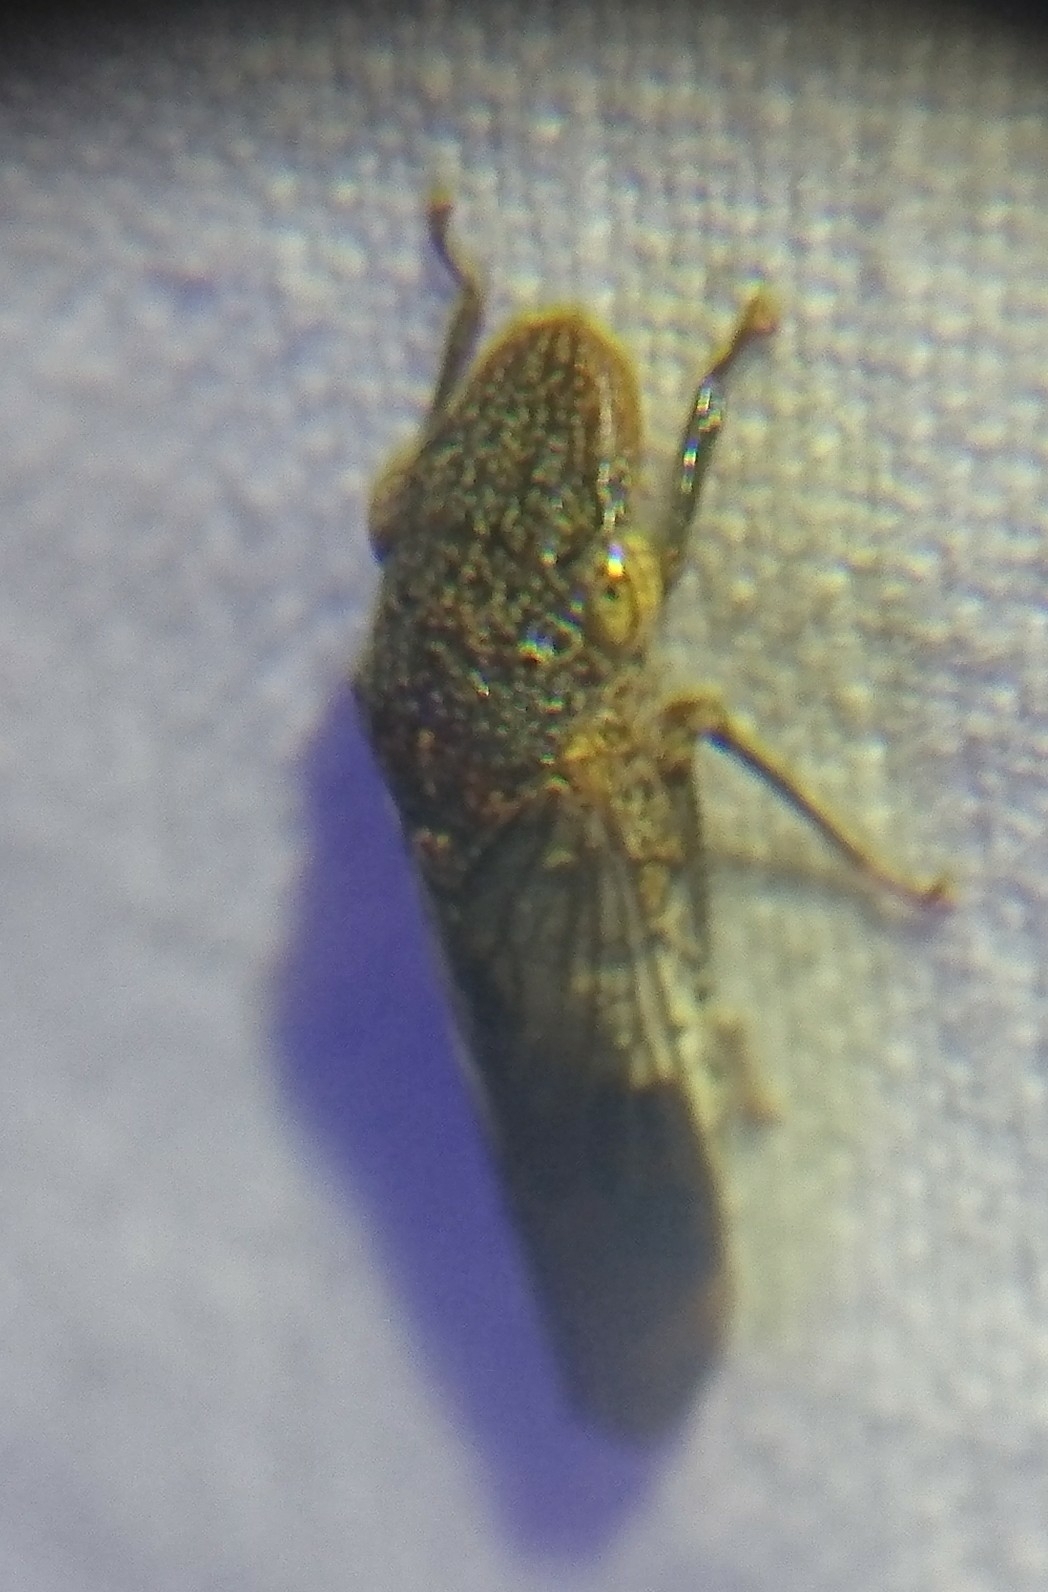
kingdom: Animalia
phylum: Arthropoda
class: Insecta
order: Hemiptera
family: Cicadellidae
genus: Homalodisca
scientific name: Homalodisca vitripennis
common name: Glassy-winged sharpshooter
